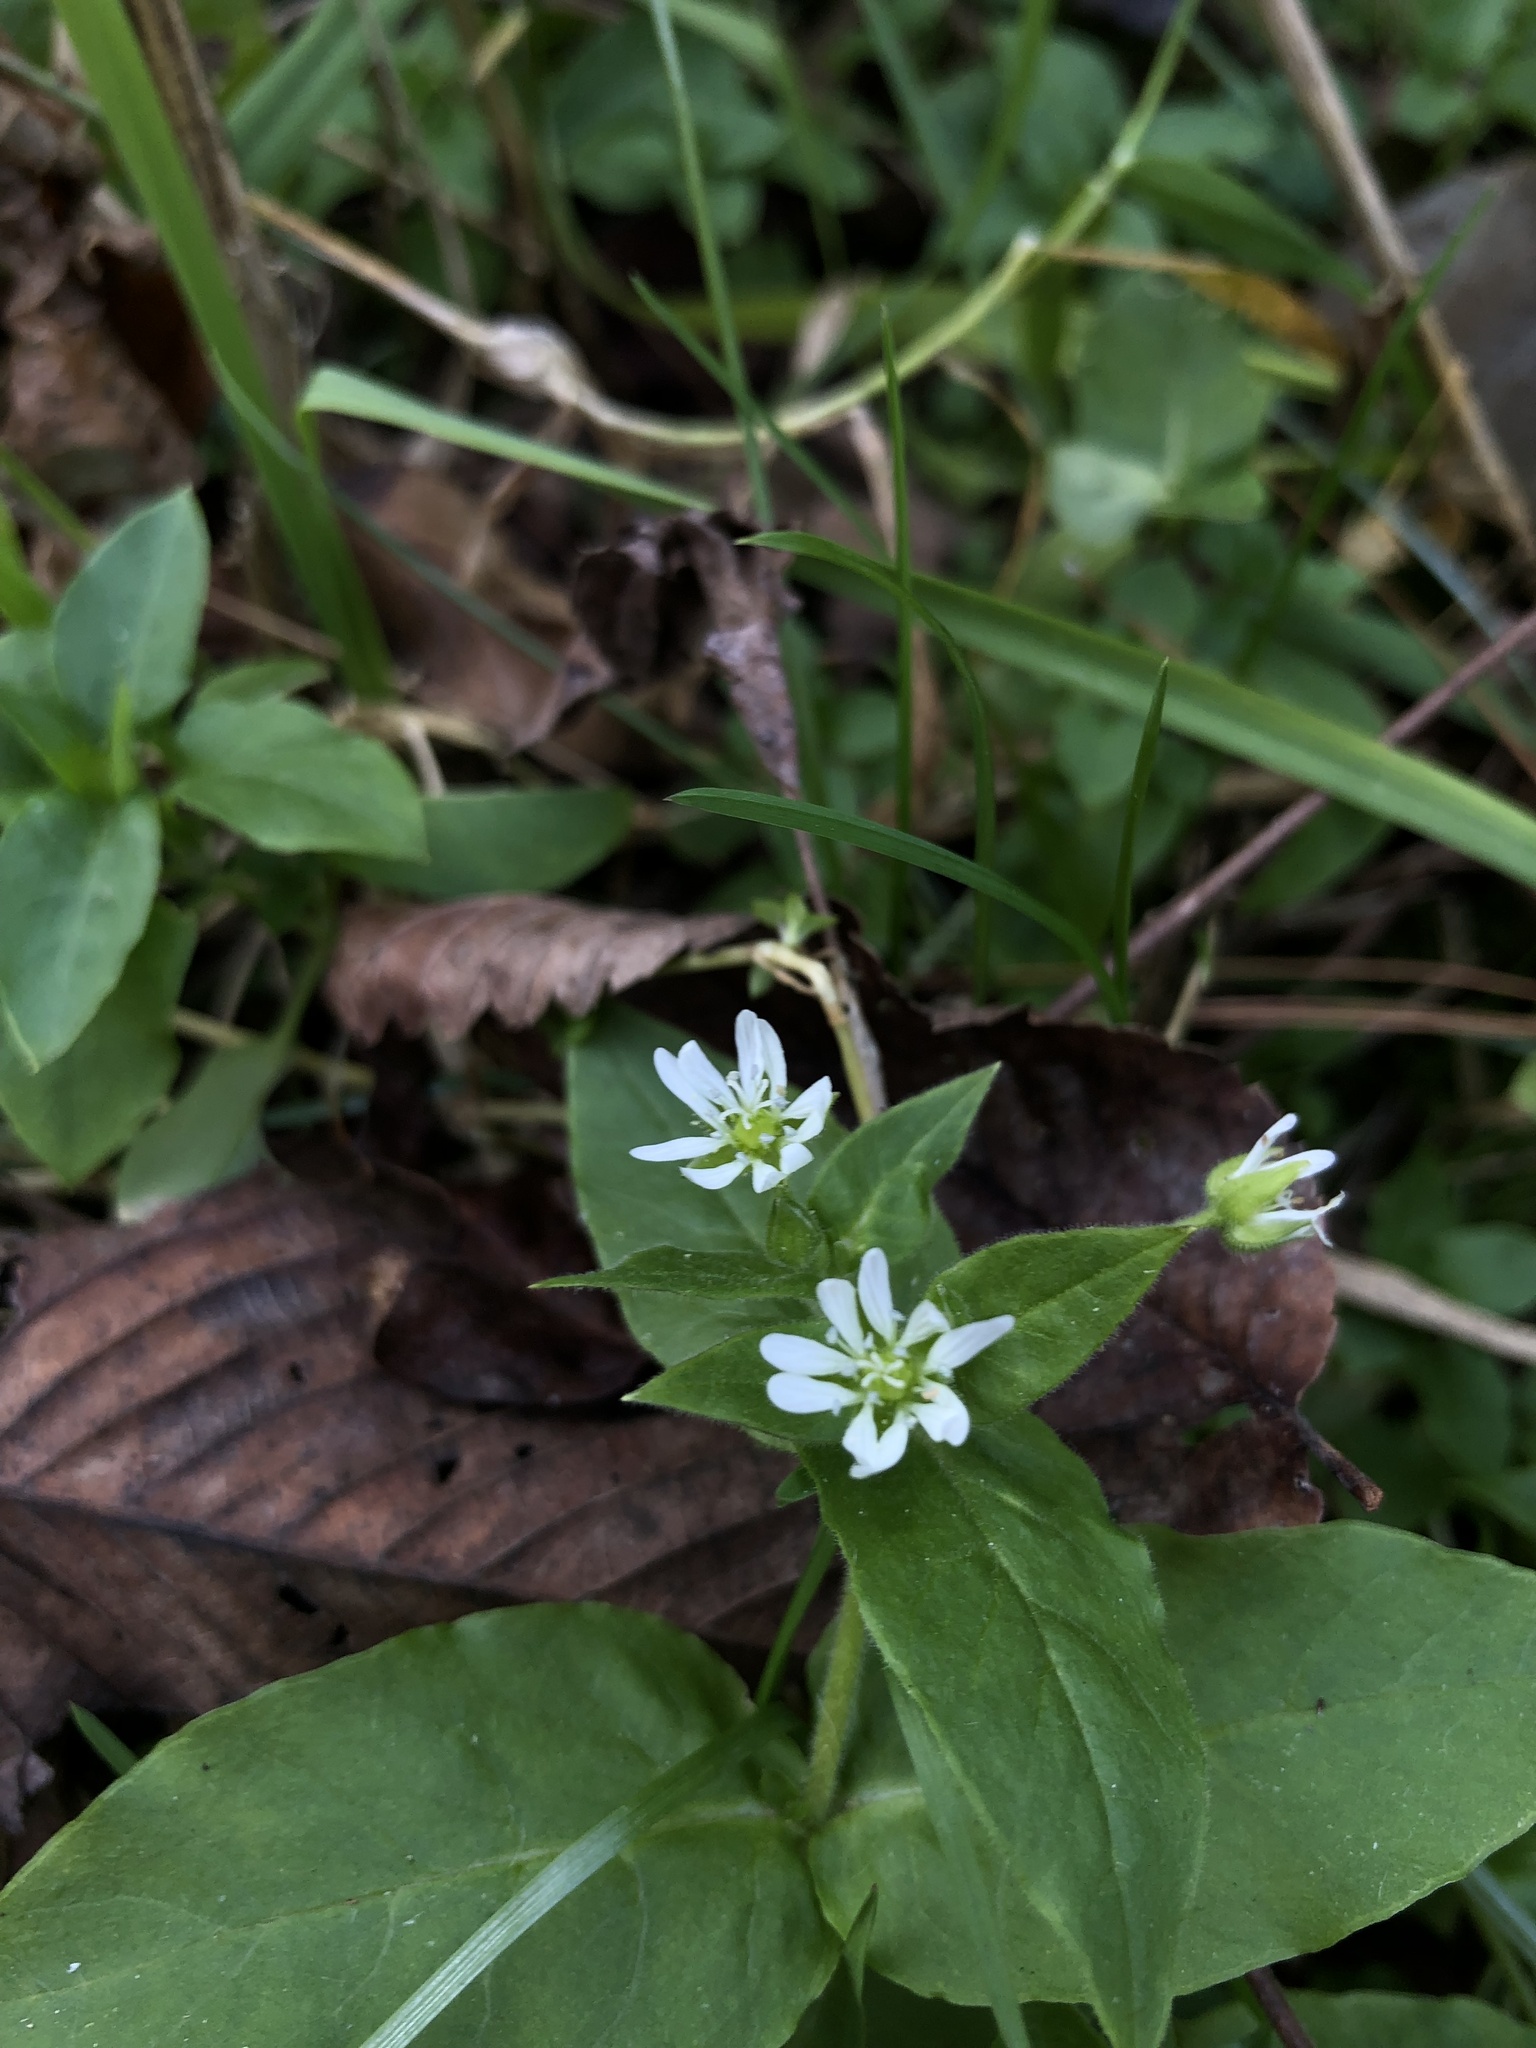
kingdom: Plantae
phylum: Tracheophyta
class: Magnoliopsida
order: Caryophyllales
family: Caryophyllaceae
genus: Stellaria
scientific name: Stellaria aquatica
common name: Water chickweed
